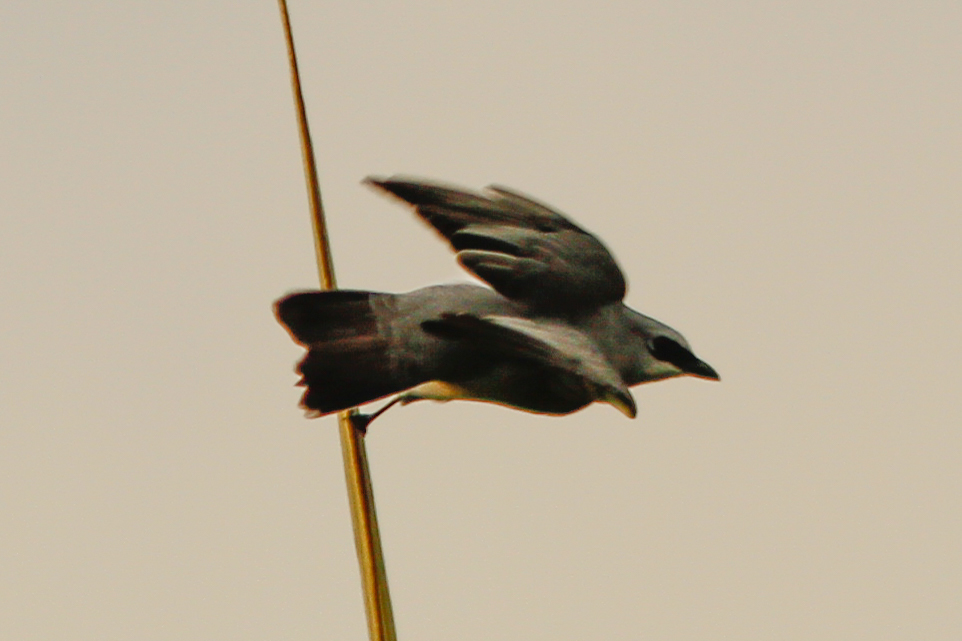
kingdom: Animalia
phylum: Chordata
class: Aves
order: Passeriformes
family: Campephagidae
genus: Coracina
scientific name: Coracina papuensis
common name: White-bellied cuckooshrike
